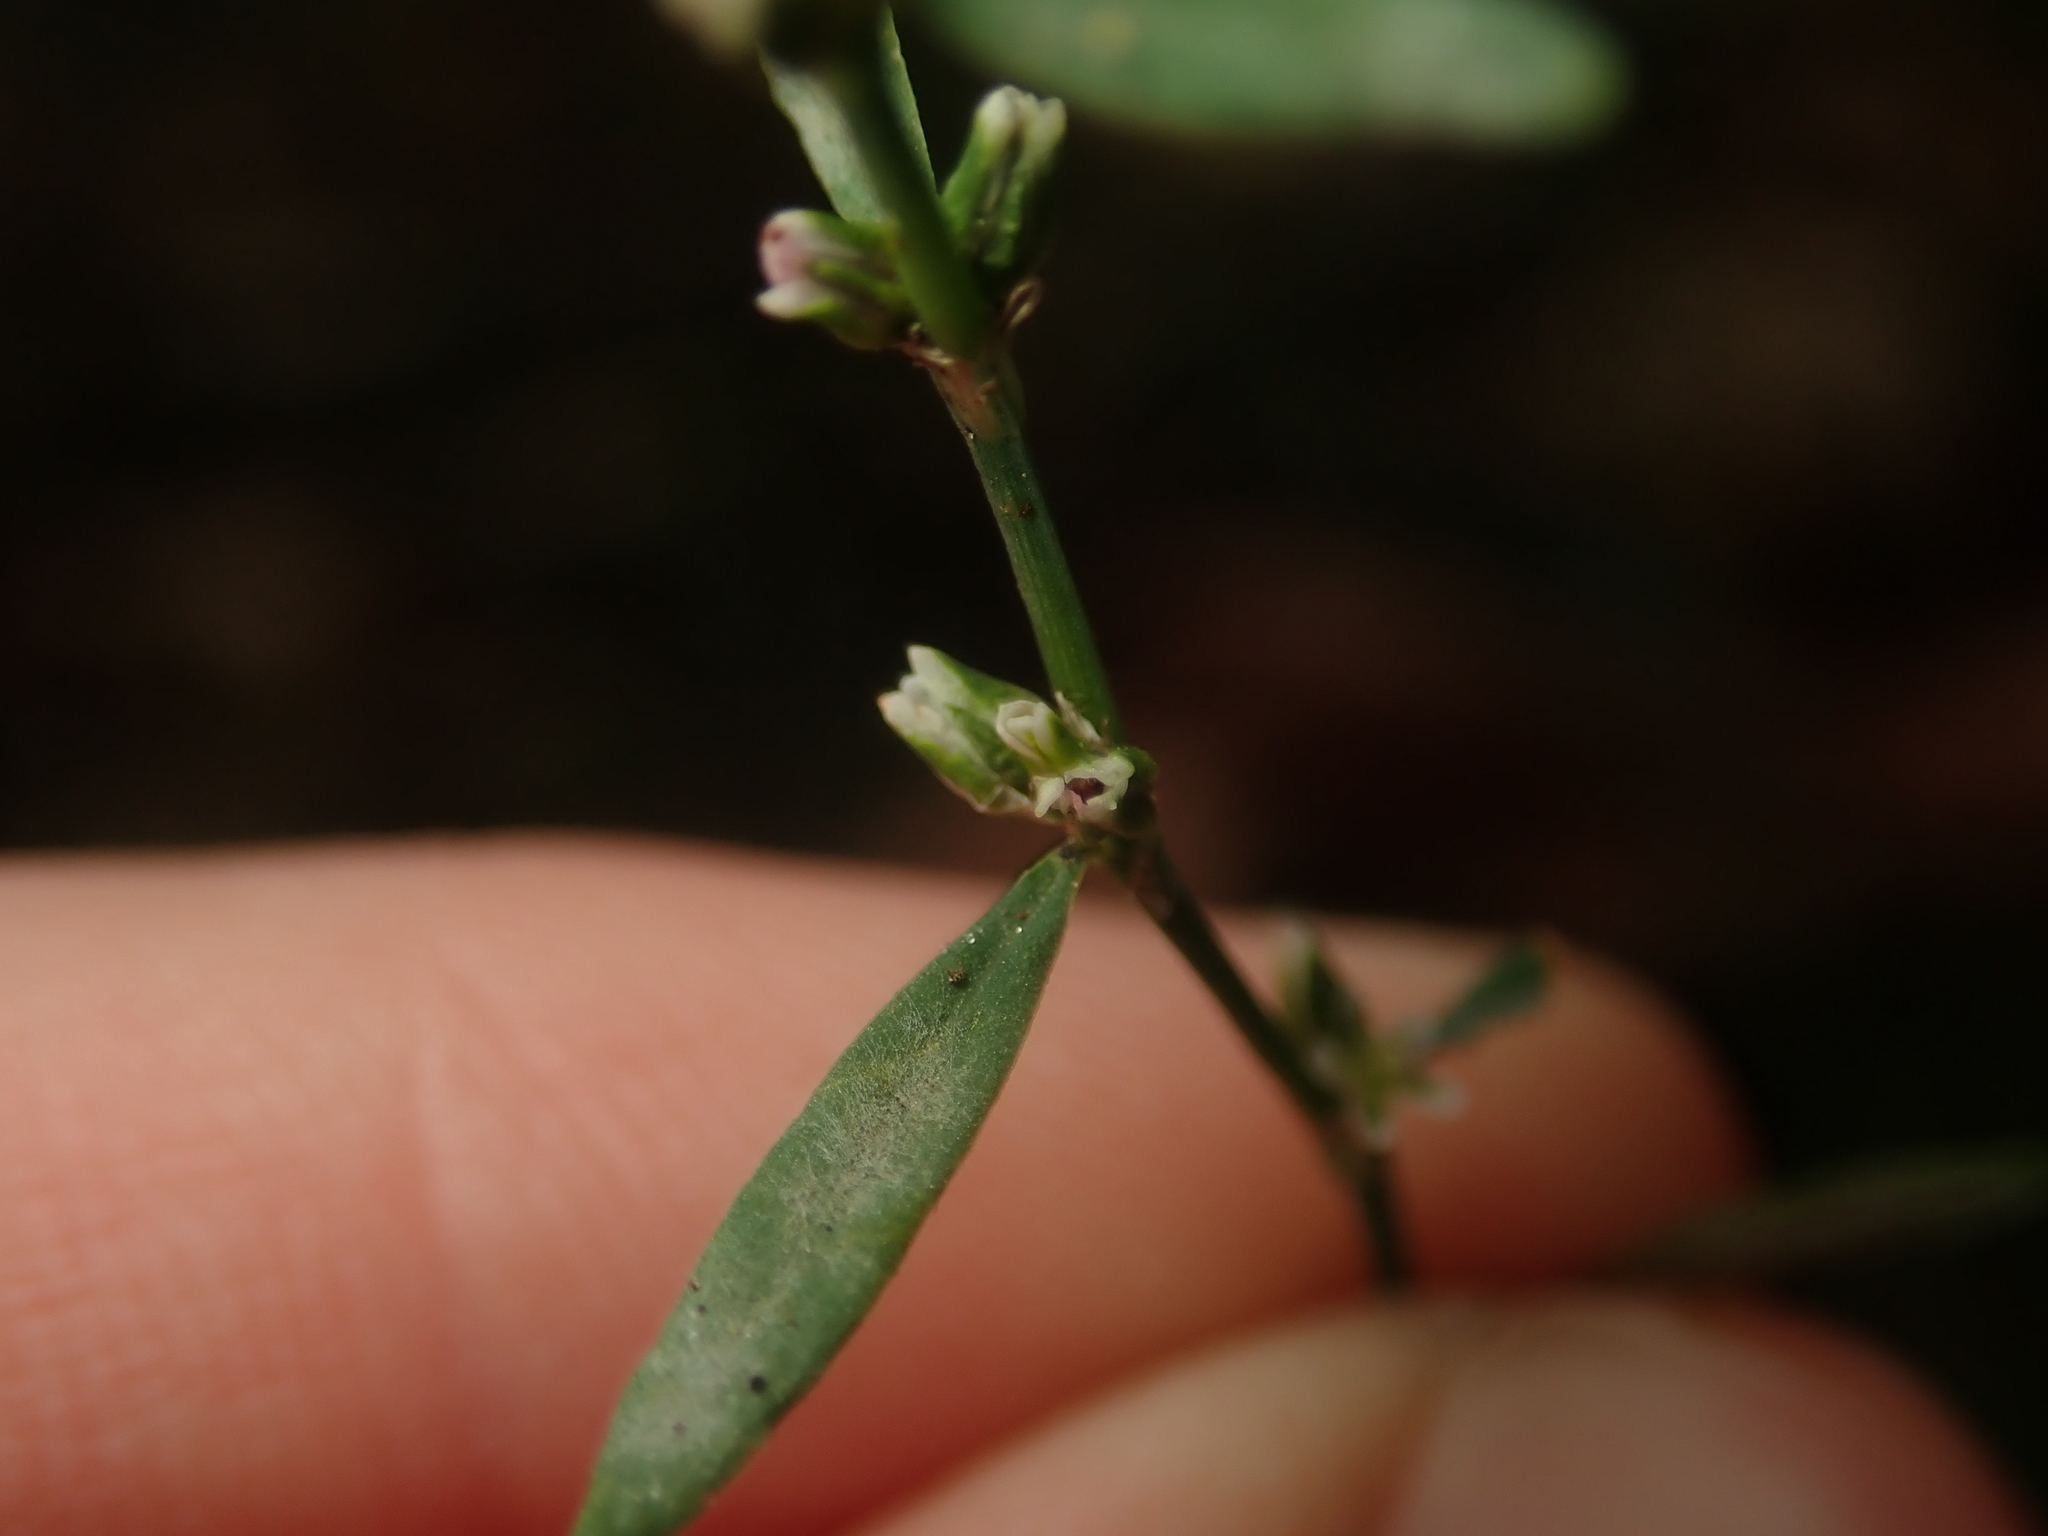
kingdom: Fungi
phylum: Ascomycota
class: Leotiomycetes
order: Helotiales
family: Erysiphaceae
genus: Erysiphe
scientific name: Erysiphe polygoni
